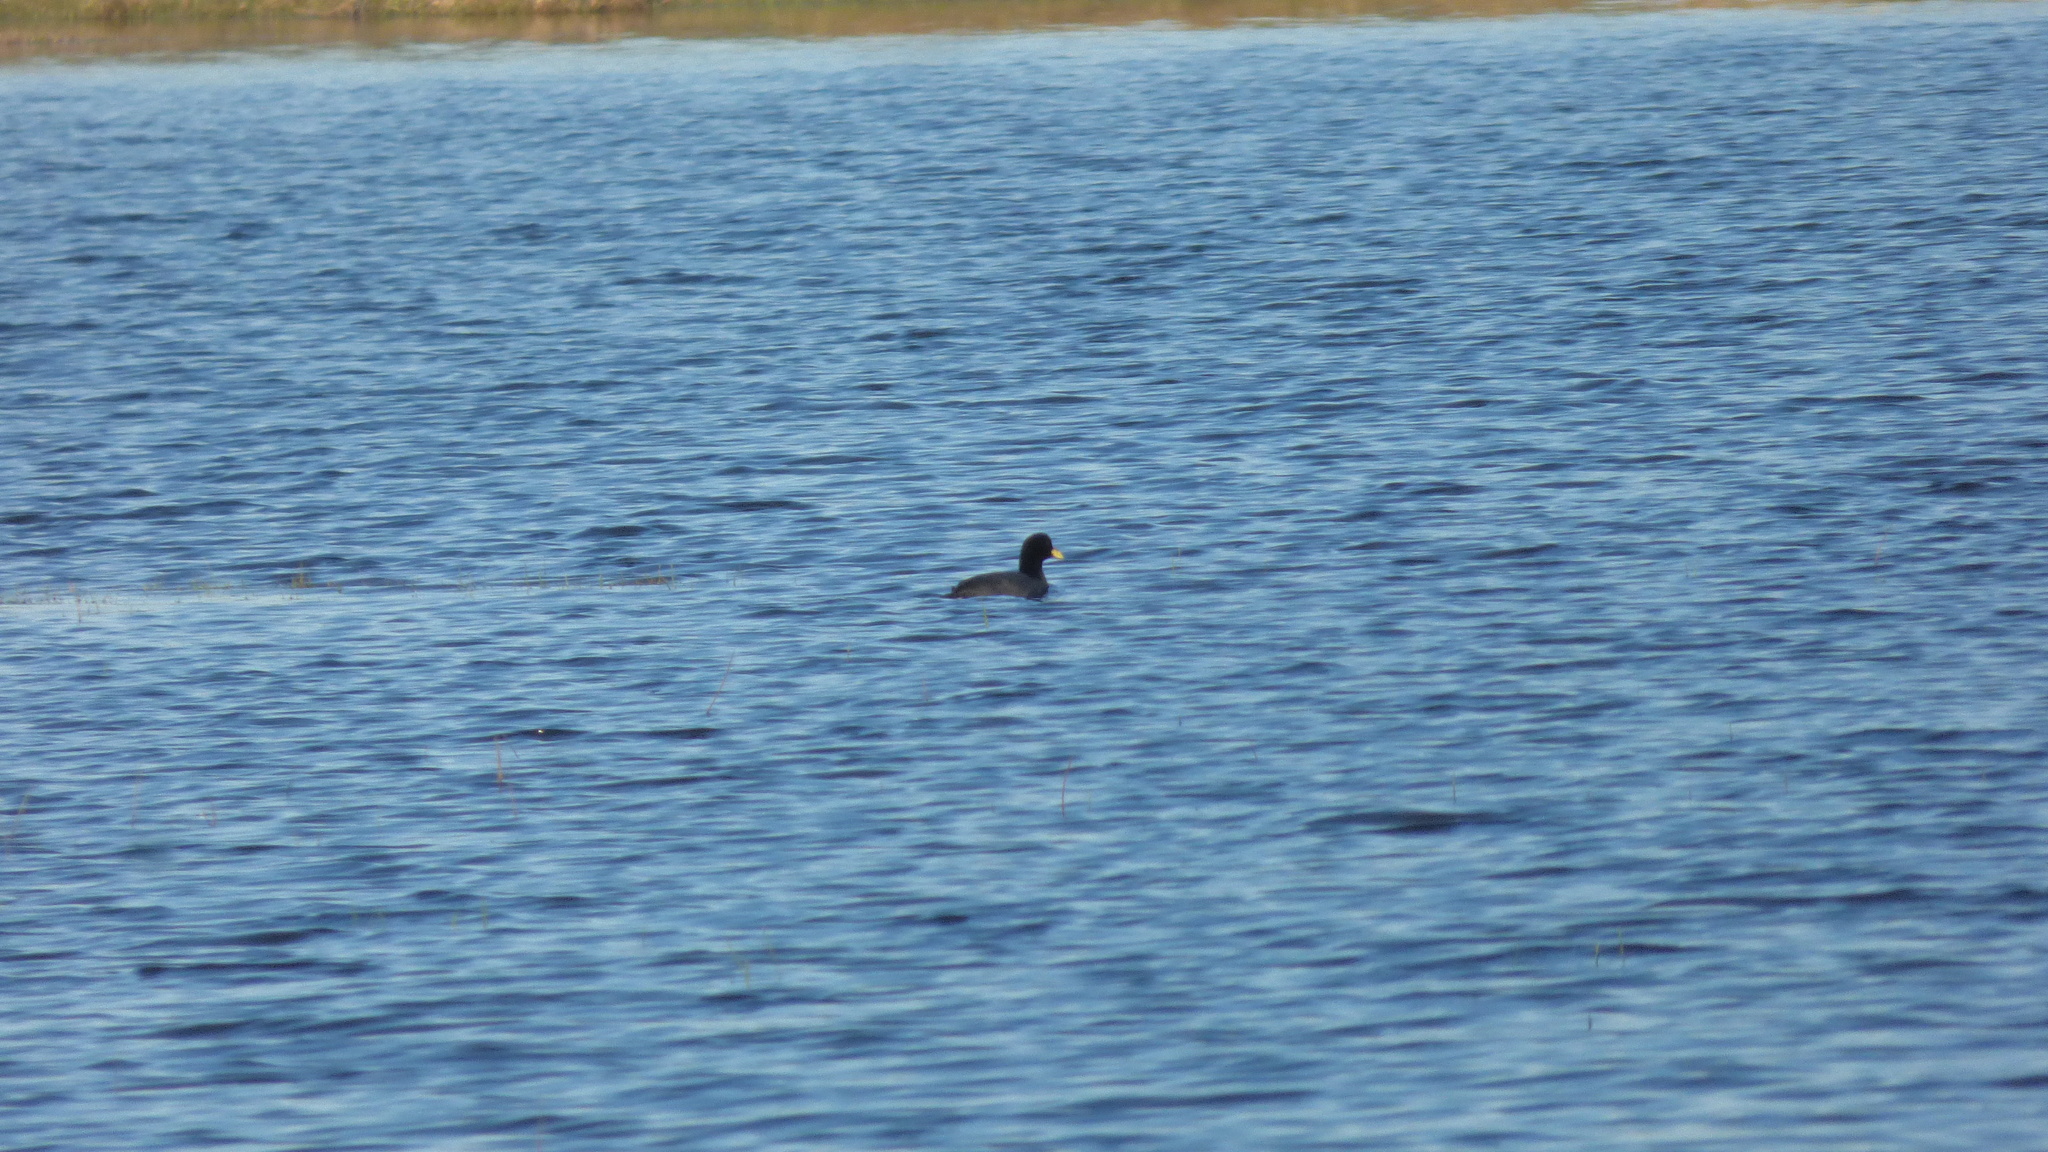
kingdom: Animalia
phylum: Chordata
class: Aves
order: Gruiformes
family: Rallidae
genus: Fulica
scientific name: Fulica armillata
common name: Red-gartered coot
